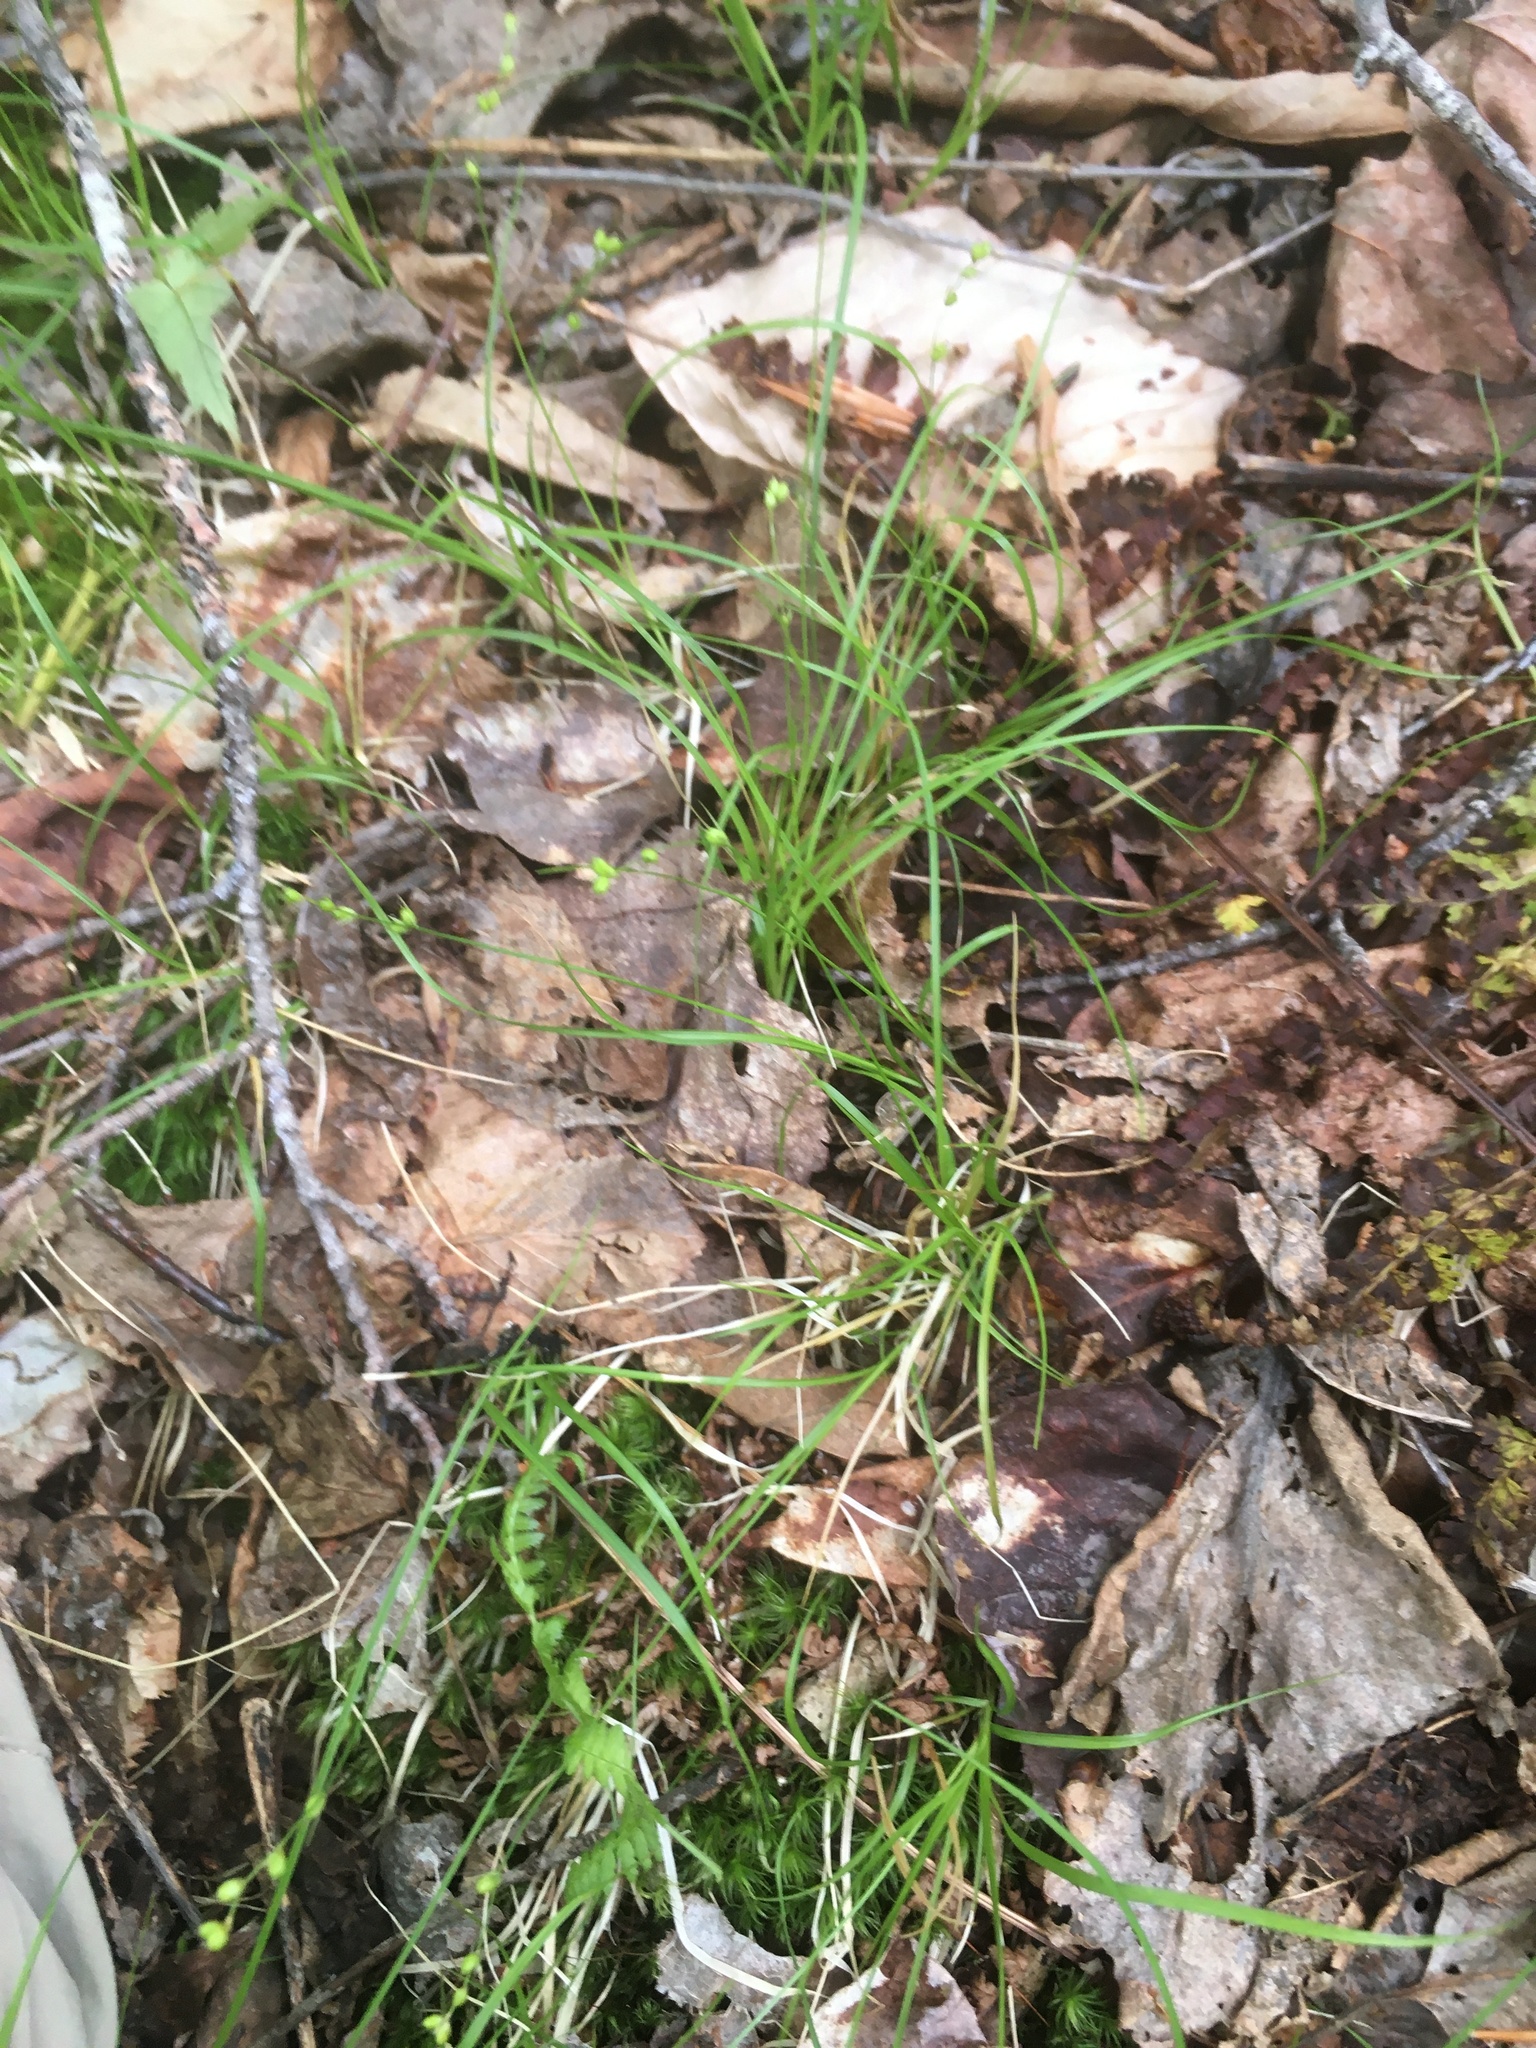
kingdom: Plantae
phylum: Tracheophyta
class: Liliopsida
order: Poales
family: Cyperaceae
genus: Carex
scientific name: Carex disperma
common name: Short-leaved sedge
